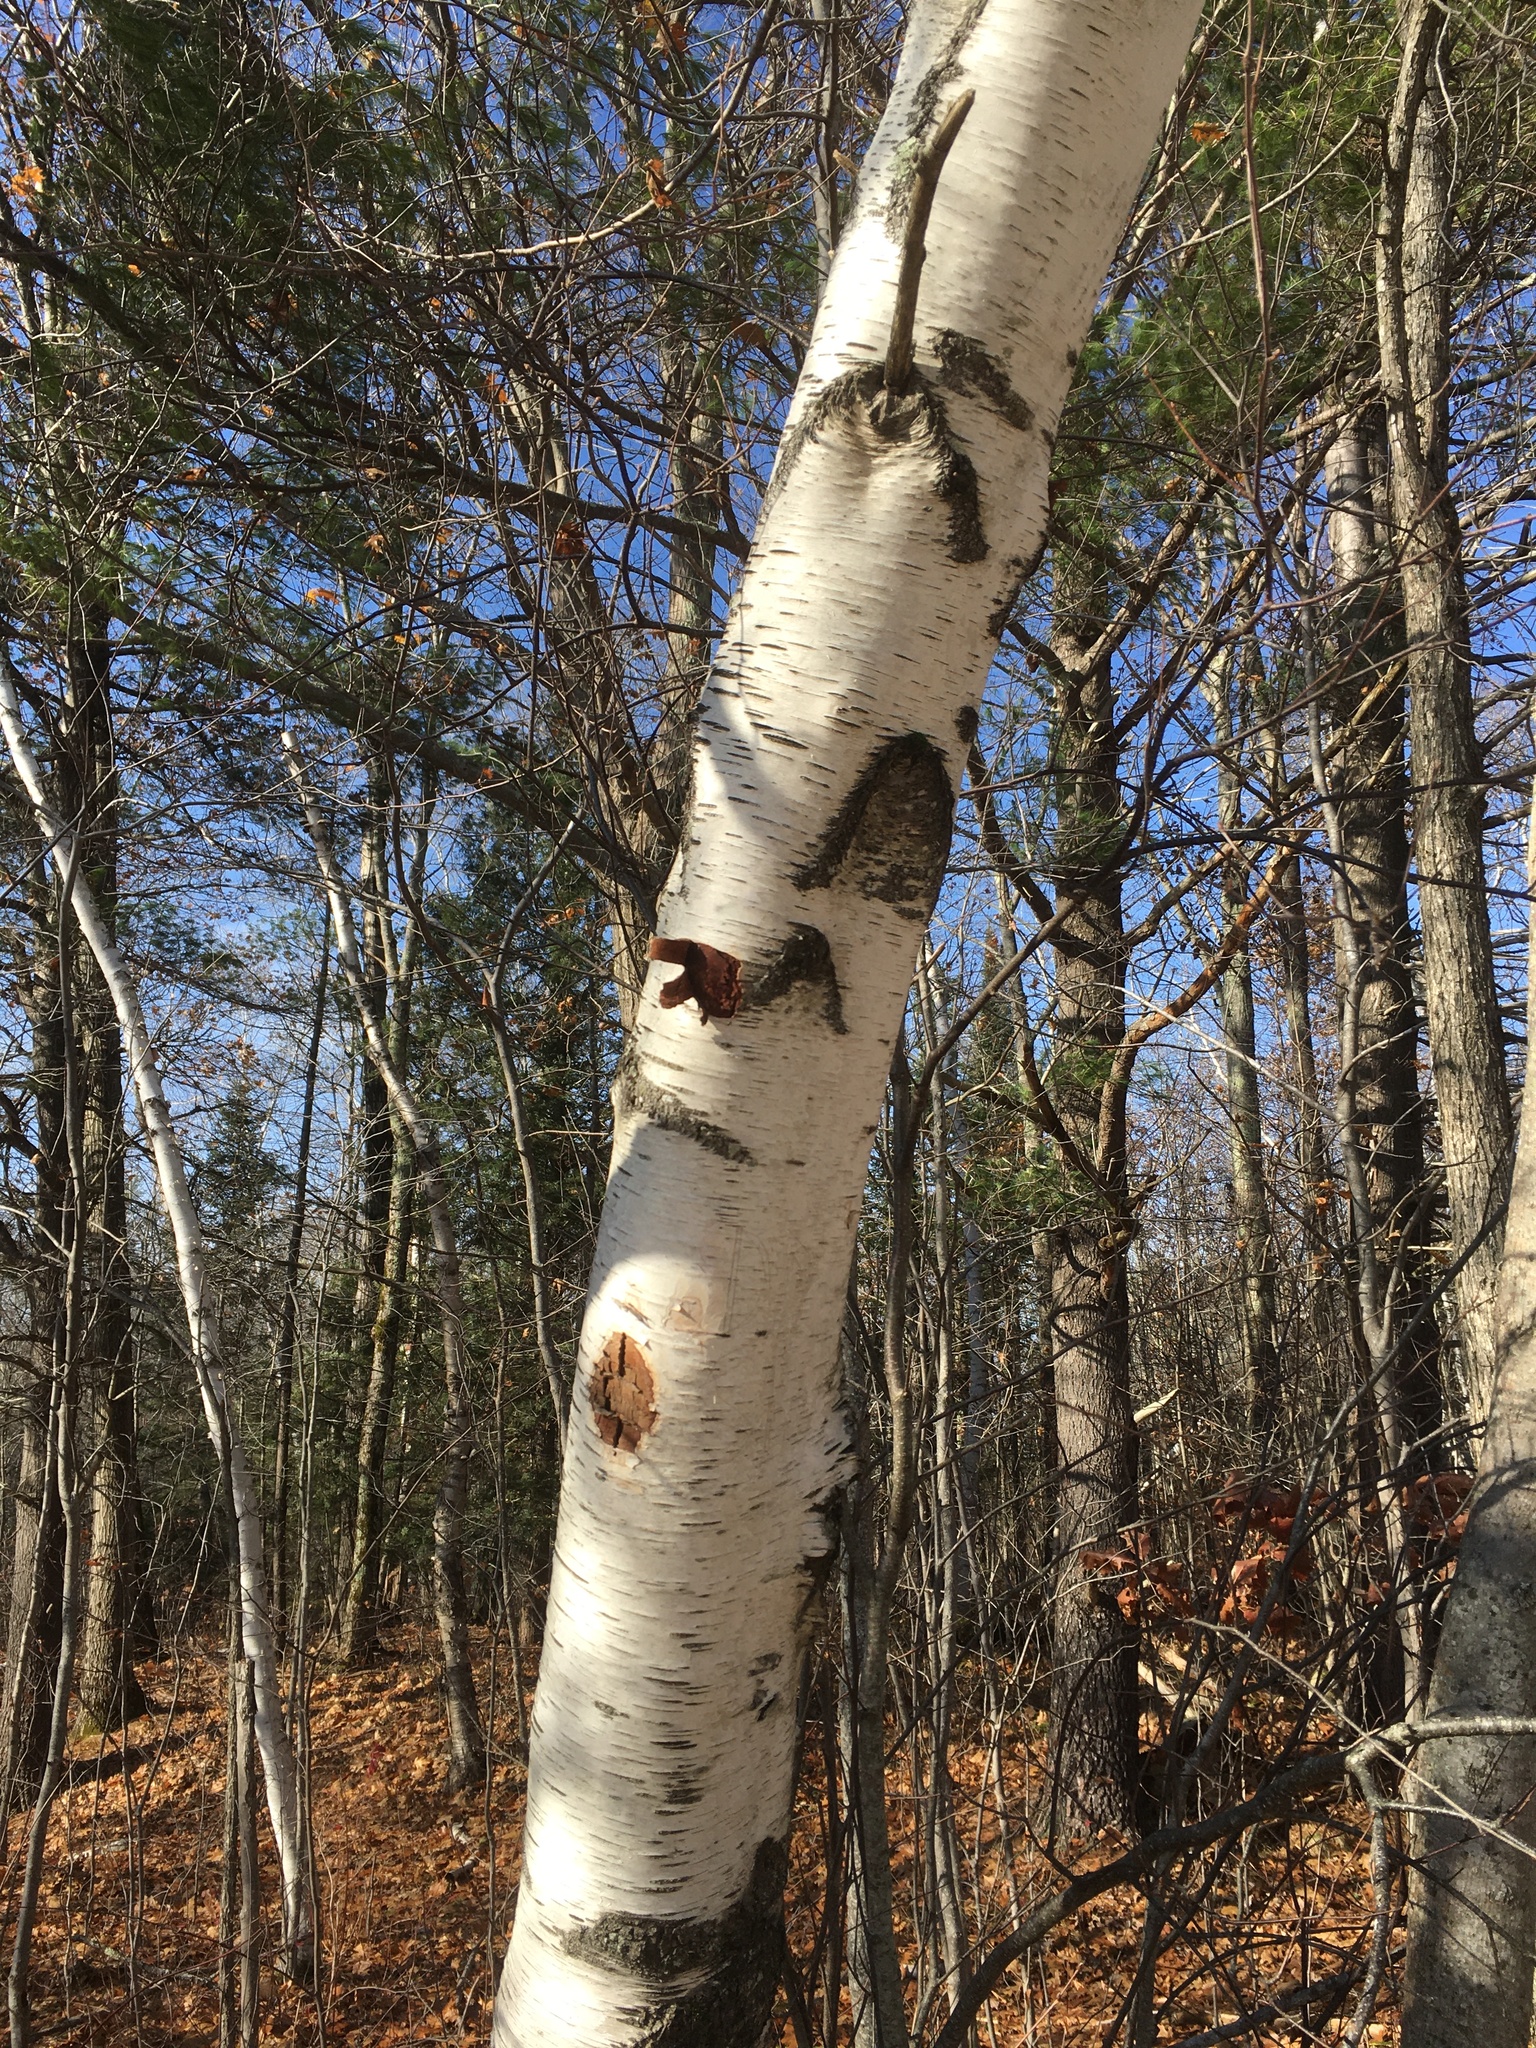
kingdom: Plantae
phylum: Tracheophyta
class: Magnoliopsida
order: Fagales
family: Betulaceae
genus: Betula
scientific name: Betula populifolia
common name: Fire birch
